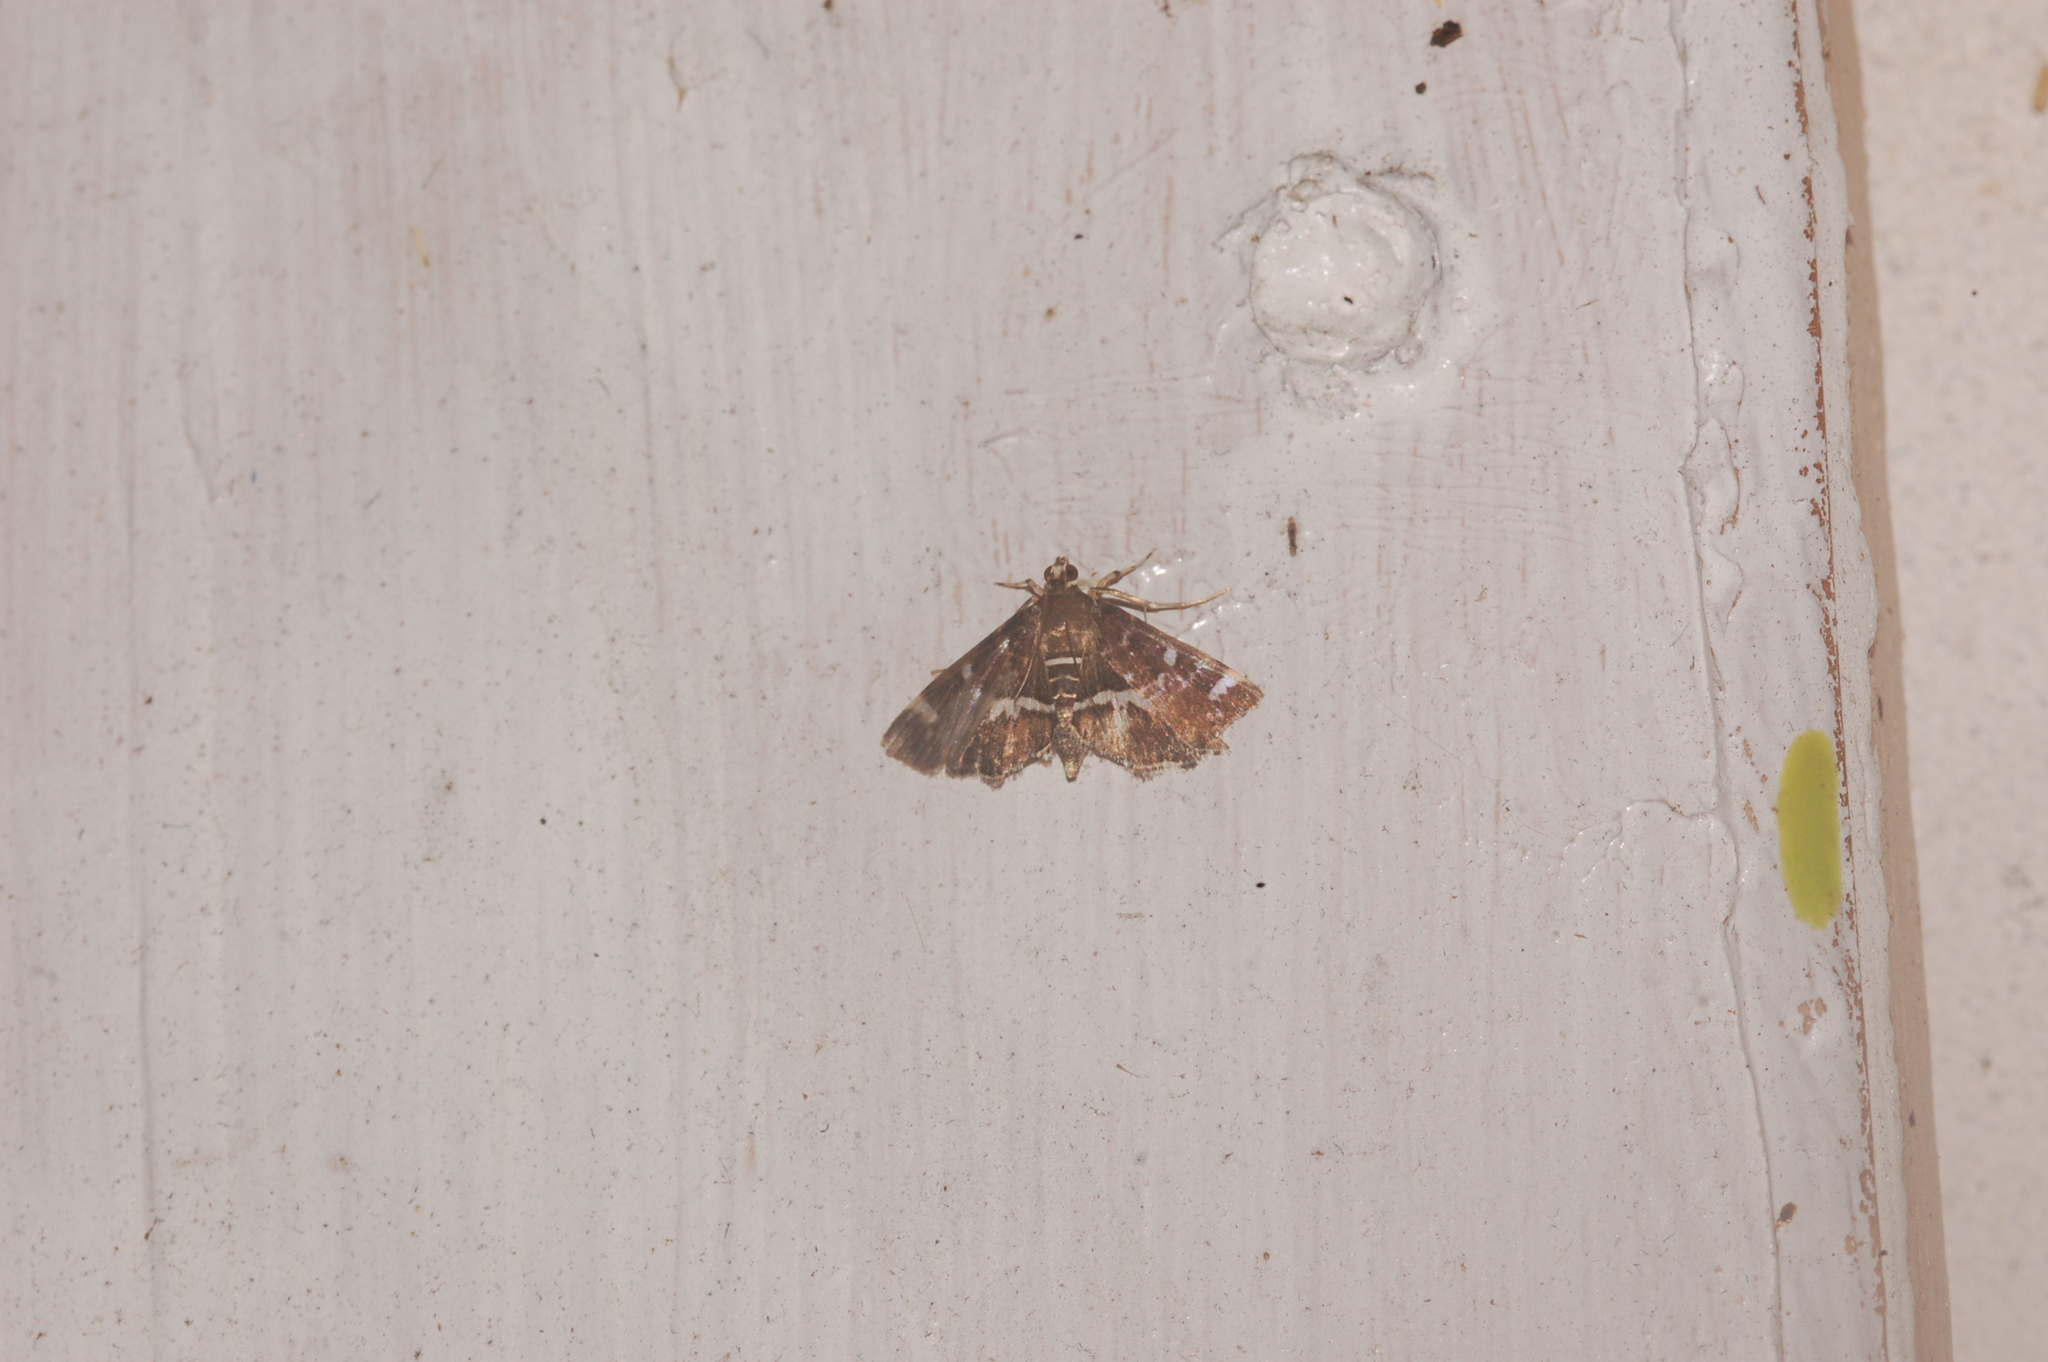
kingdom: Animalia
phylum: Arthropoda
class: Insecta
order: Lepidoptera
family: Crambidae
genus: Hymenia
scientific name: Hymenia perspectalis
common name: Spotted beet webworm
